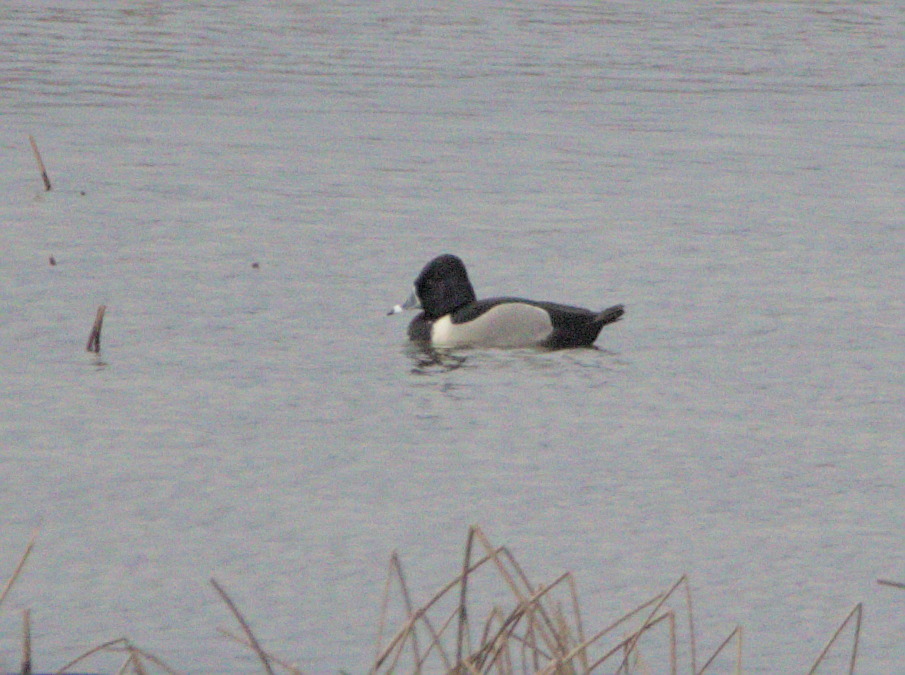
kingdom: Animalia
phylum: Chordata
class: Aves
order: Anseriformes
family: Anatidae
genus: Aythya
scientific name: Aythya collaris
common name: Ring-necked duck
